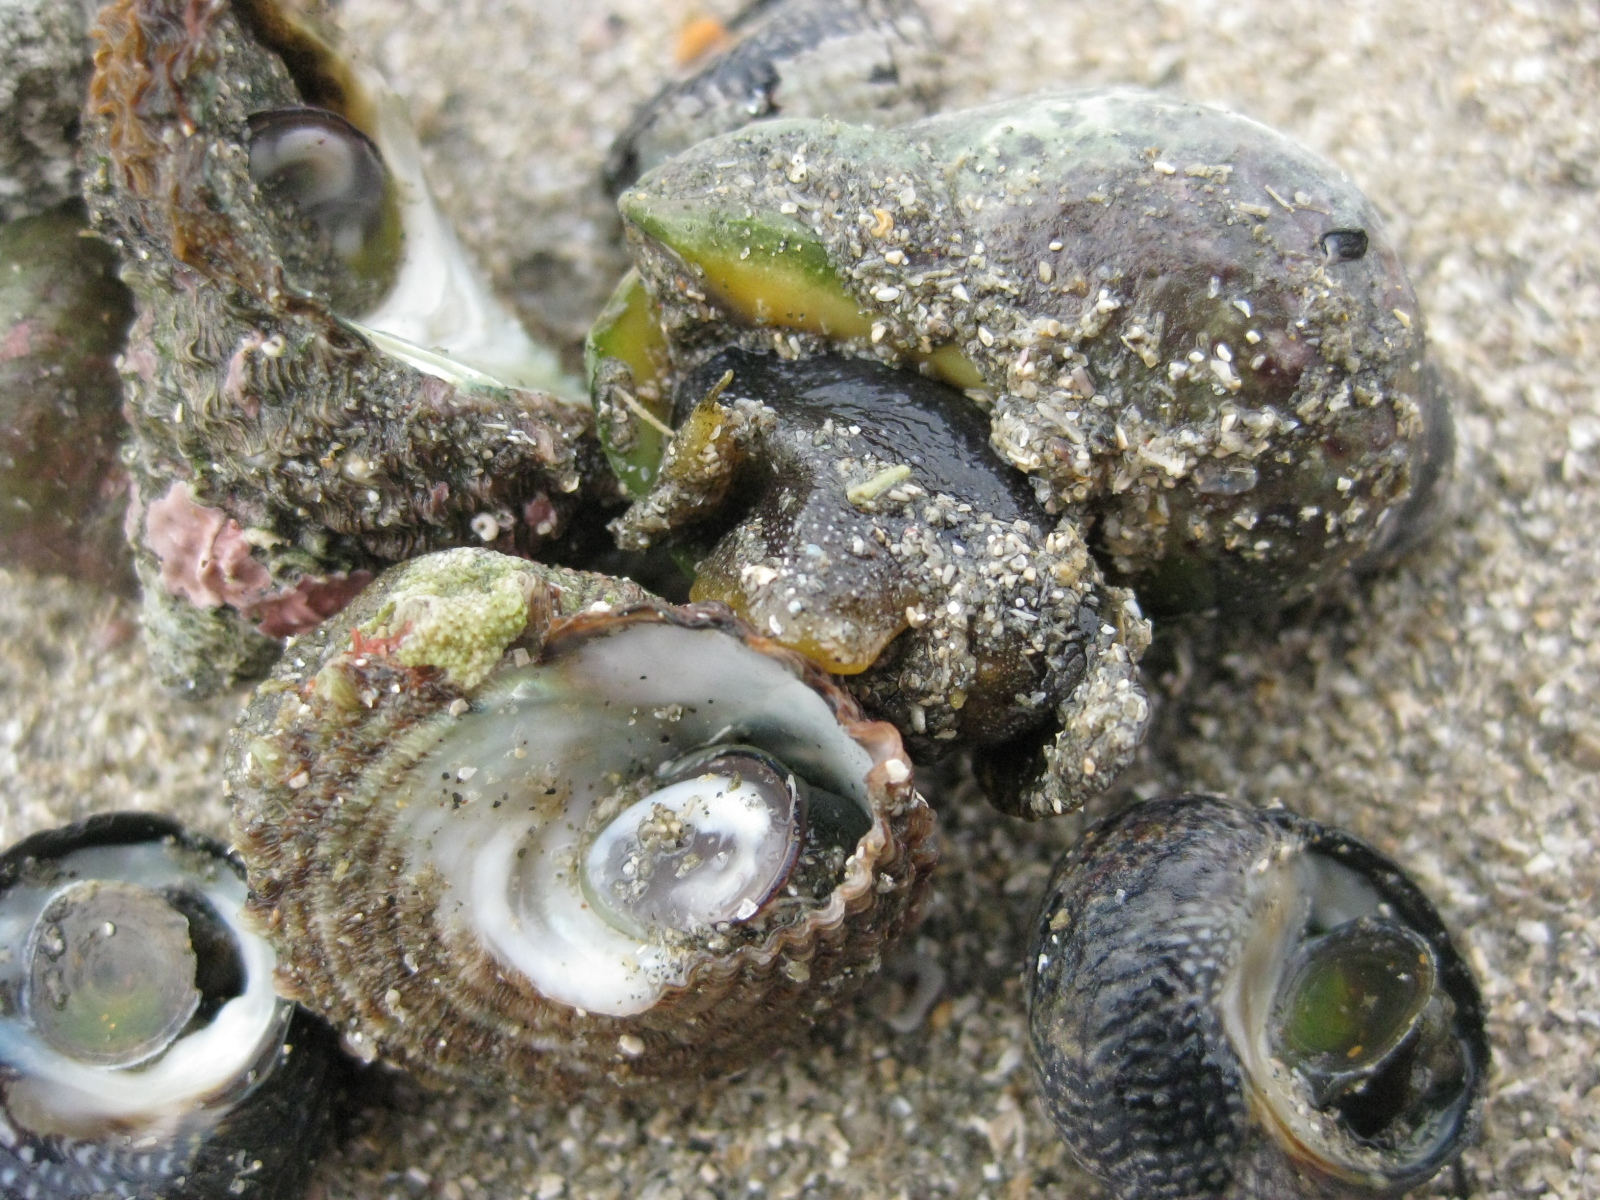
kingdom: Animalia
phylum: Mollusca
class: Gastropoda
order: Neogastropoda
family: Cominellidae
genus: Cominella
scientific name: Cominella adspersa
